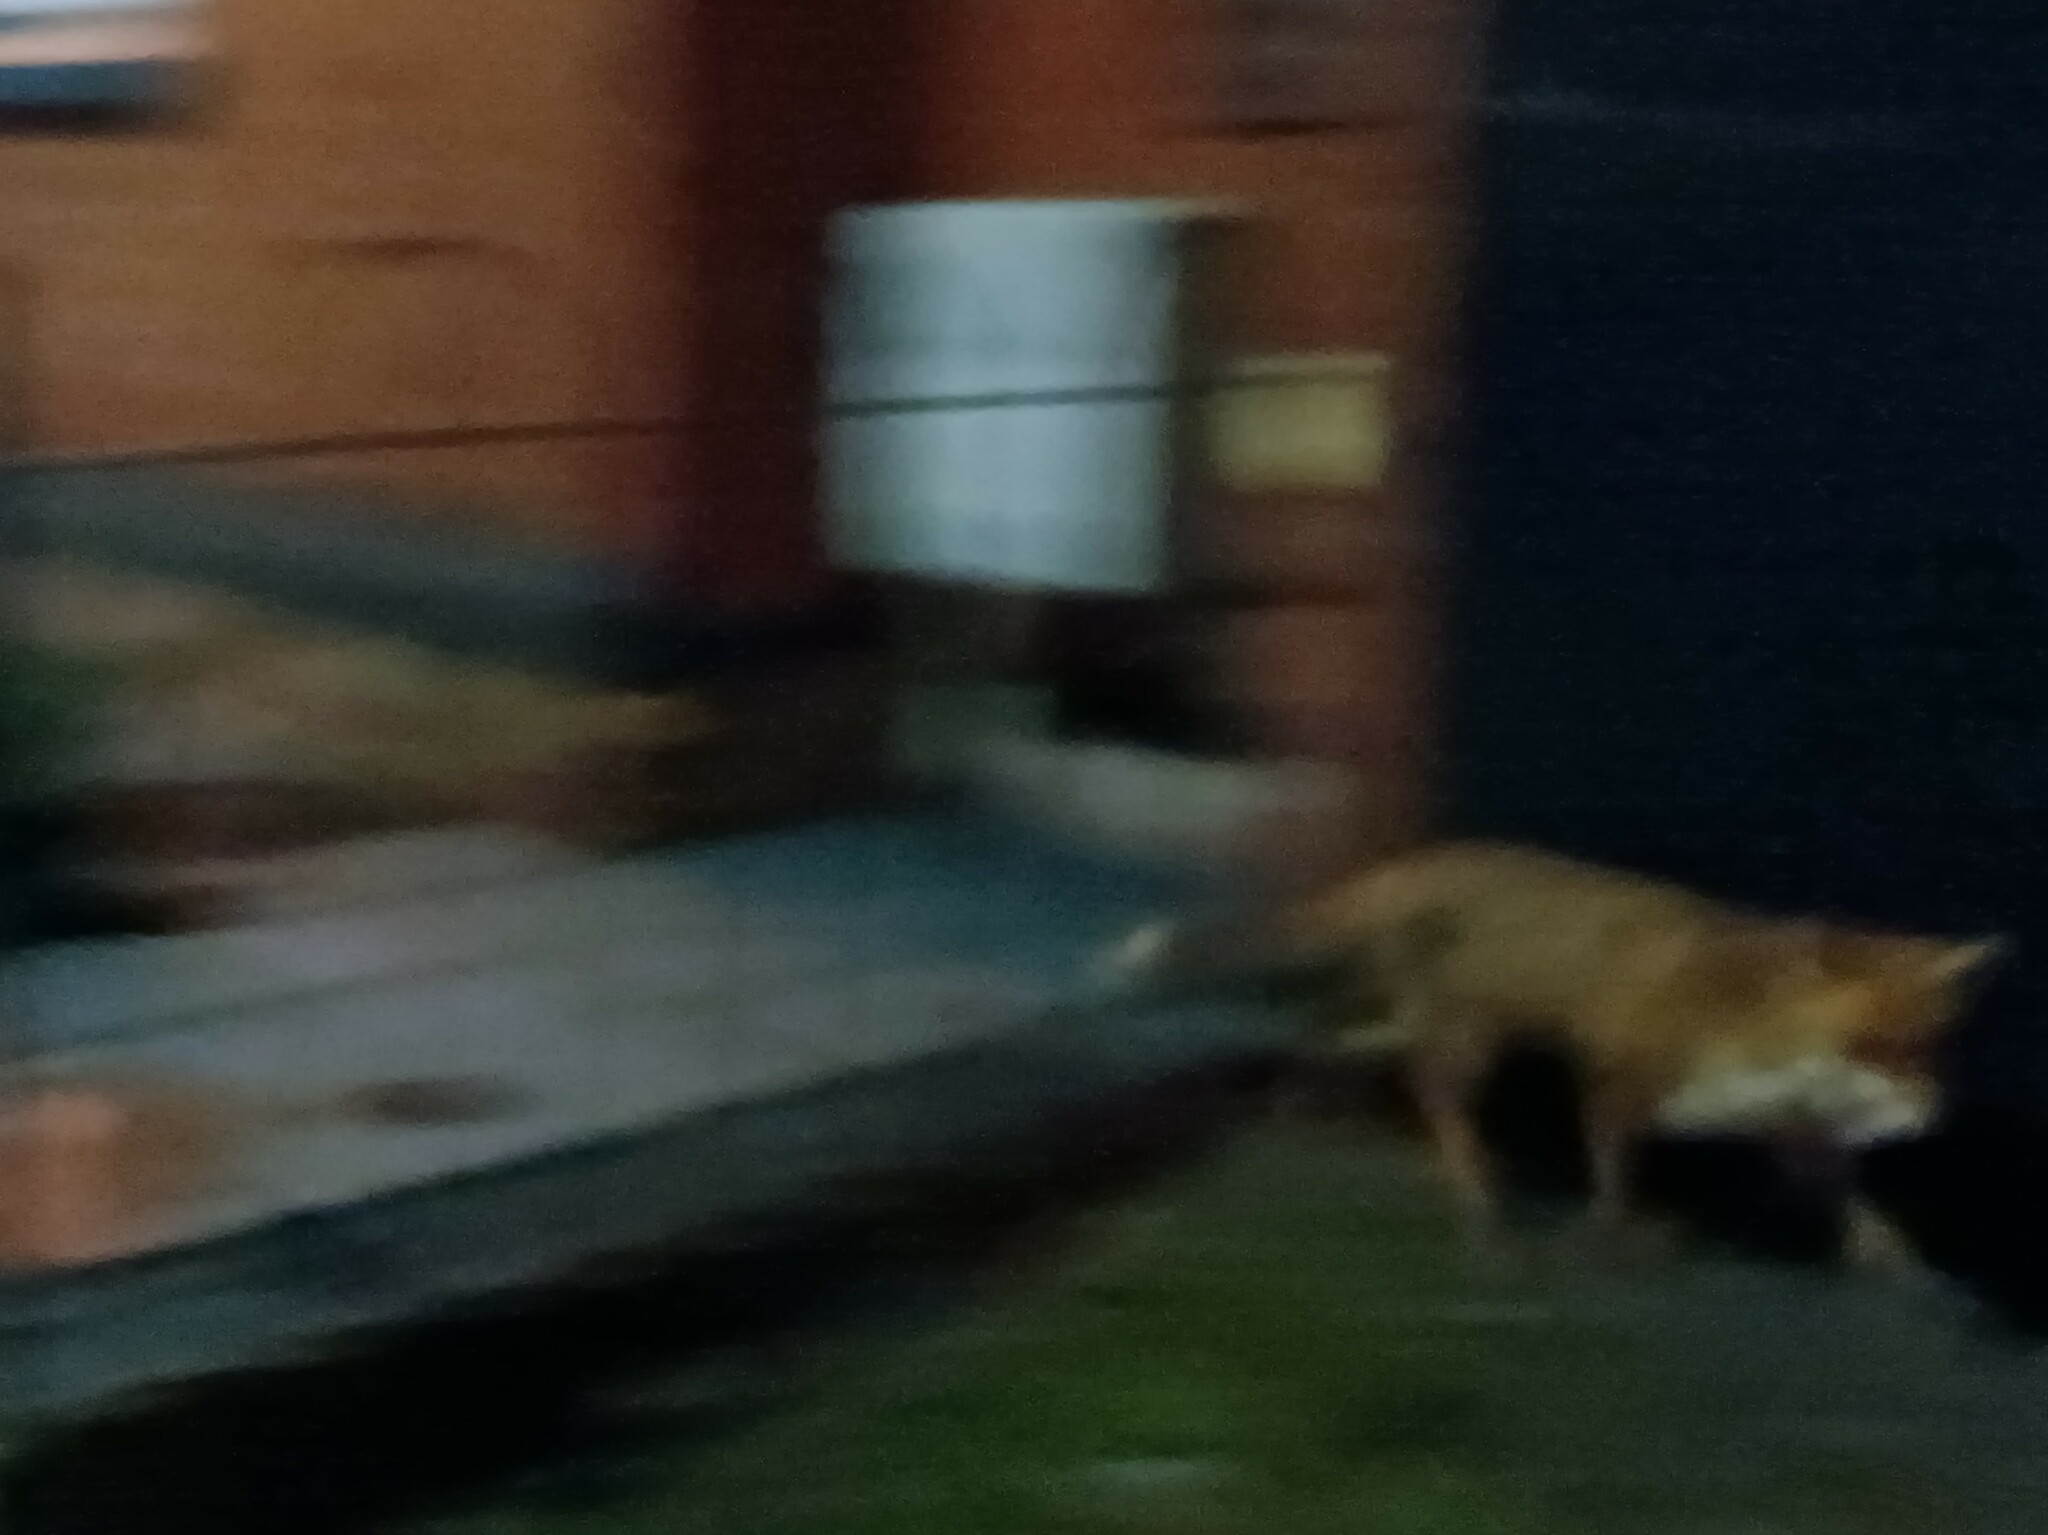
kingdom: Animalia
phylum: Chordata
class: Mammalia
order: Carnivora
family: Canidae
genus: Vulpes
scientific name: Vulpes vulpes
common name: Red fox
